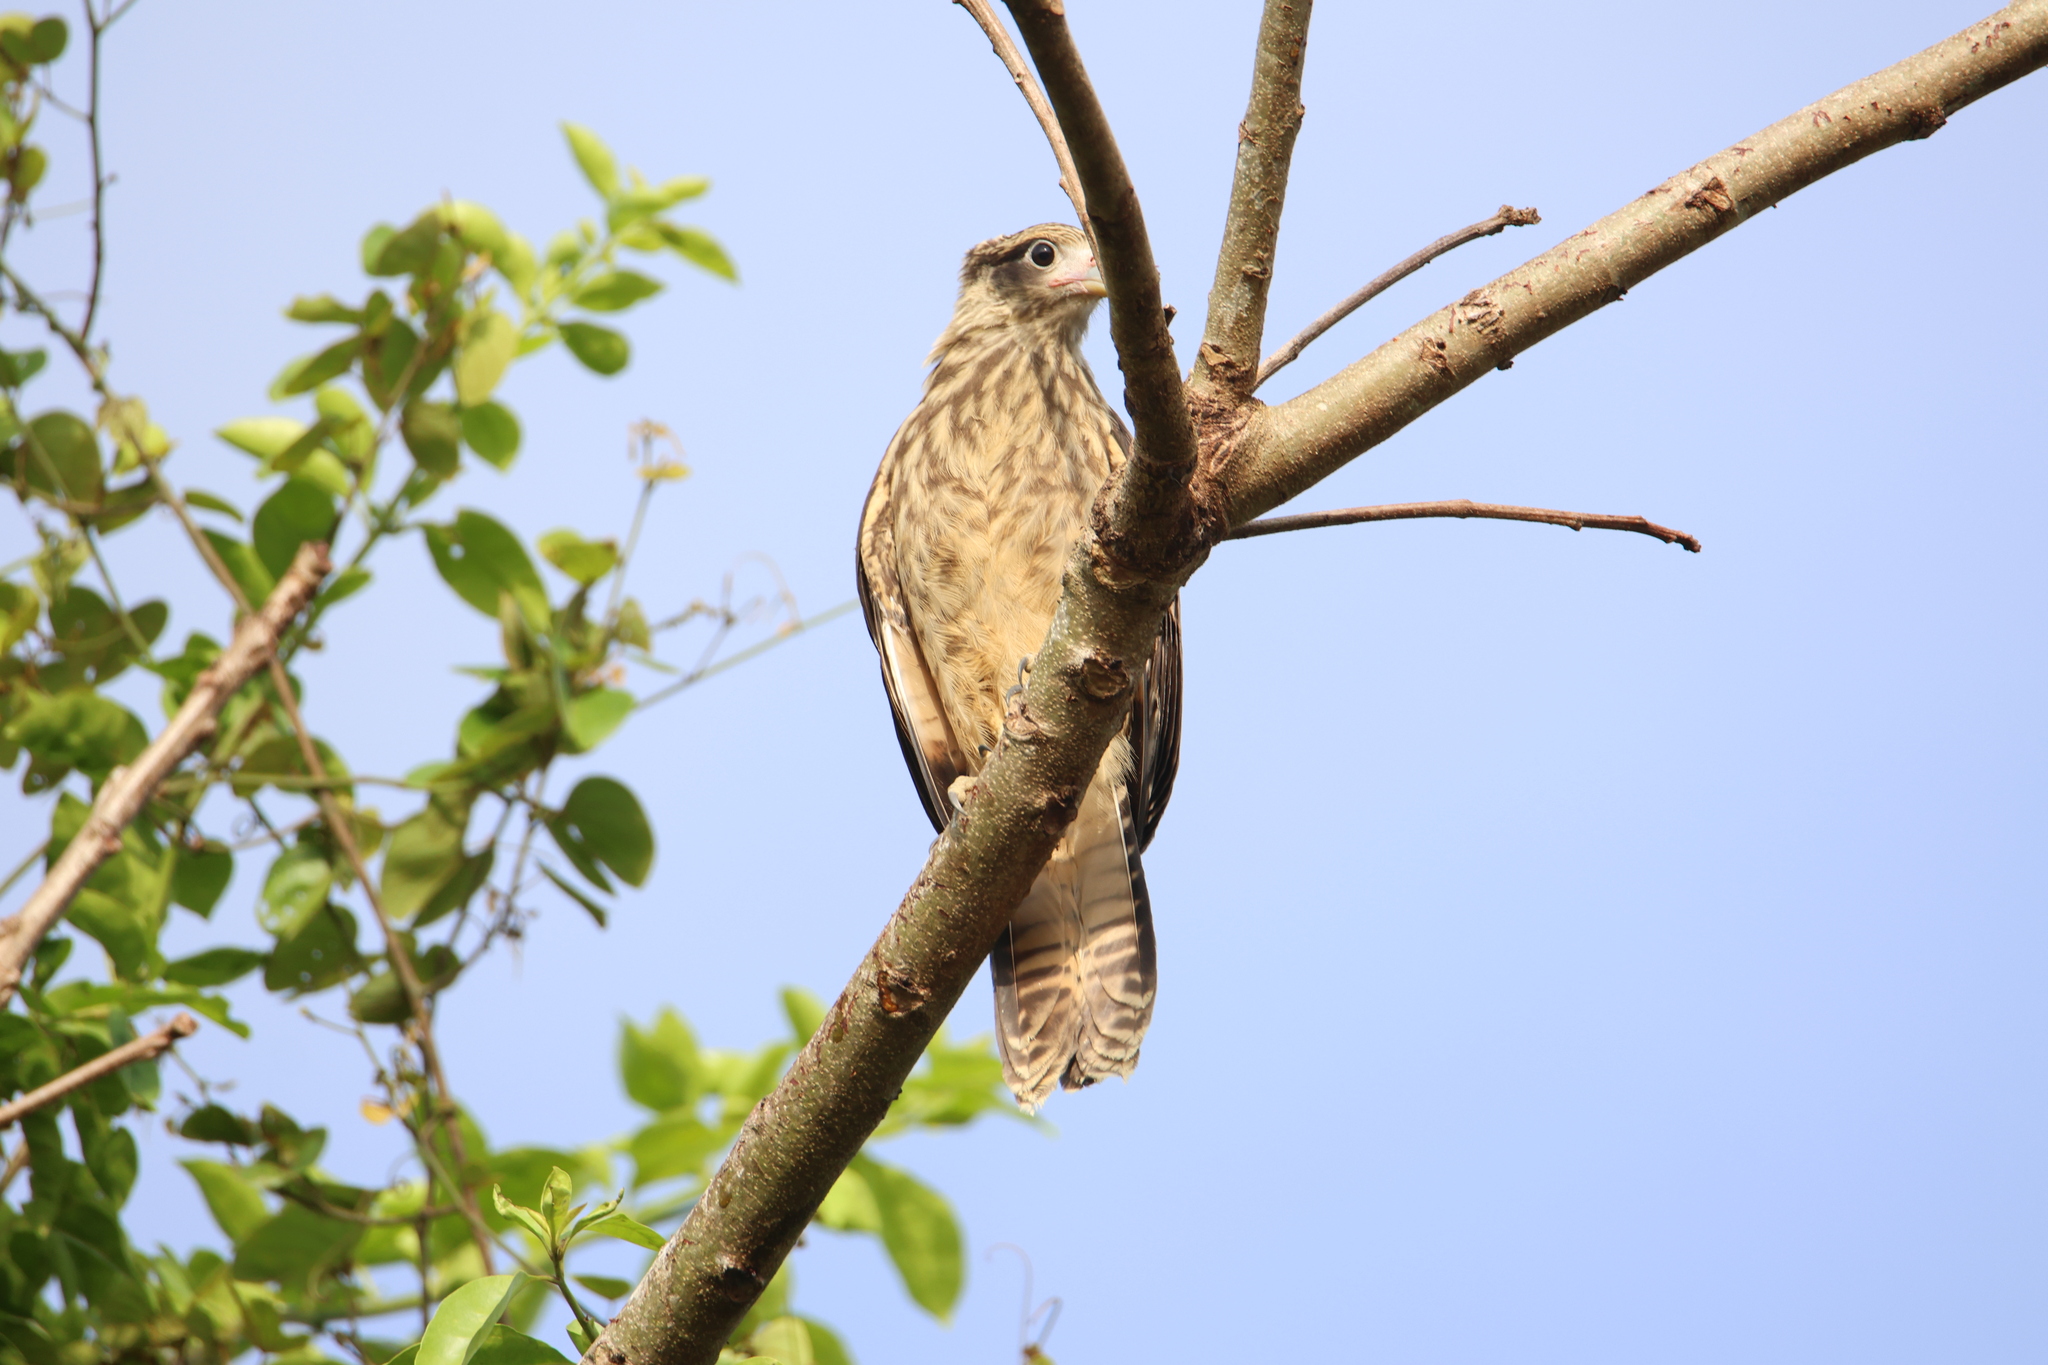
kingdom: Animalia
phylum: Chordata
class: Aves
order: Falconiformes
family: Falconidae
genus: Daptrius
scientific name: Daptrius
